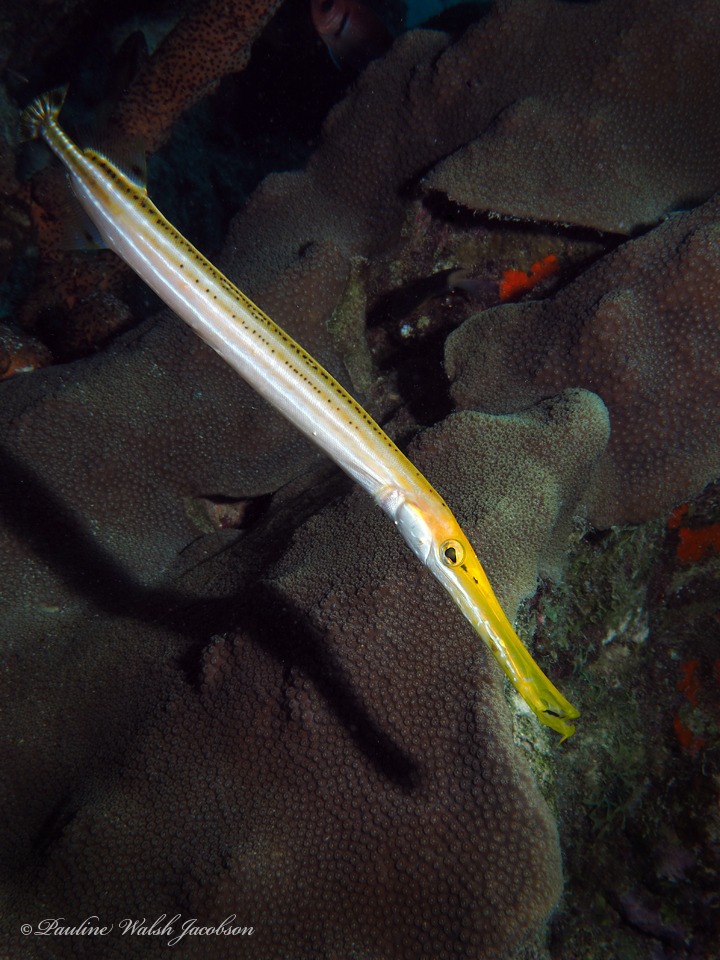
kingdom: Animalia
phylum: Chordata
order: Syngnathiformes
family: Aulostomidae
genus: Aulostomus
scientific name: Aulostomus maculatus
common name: West atlantic trumpetfish
